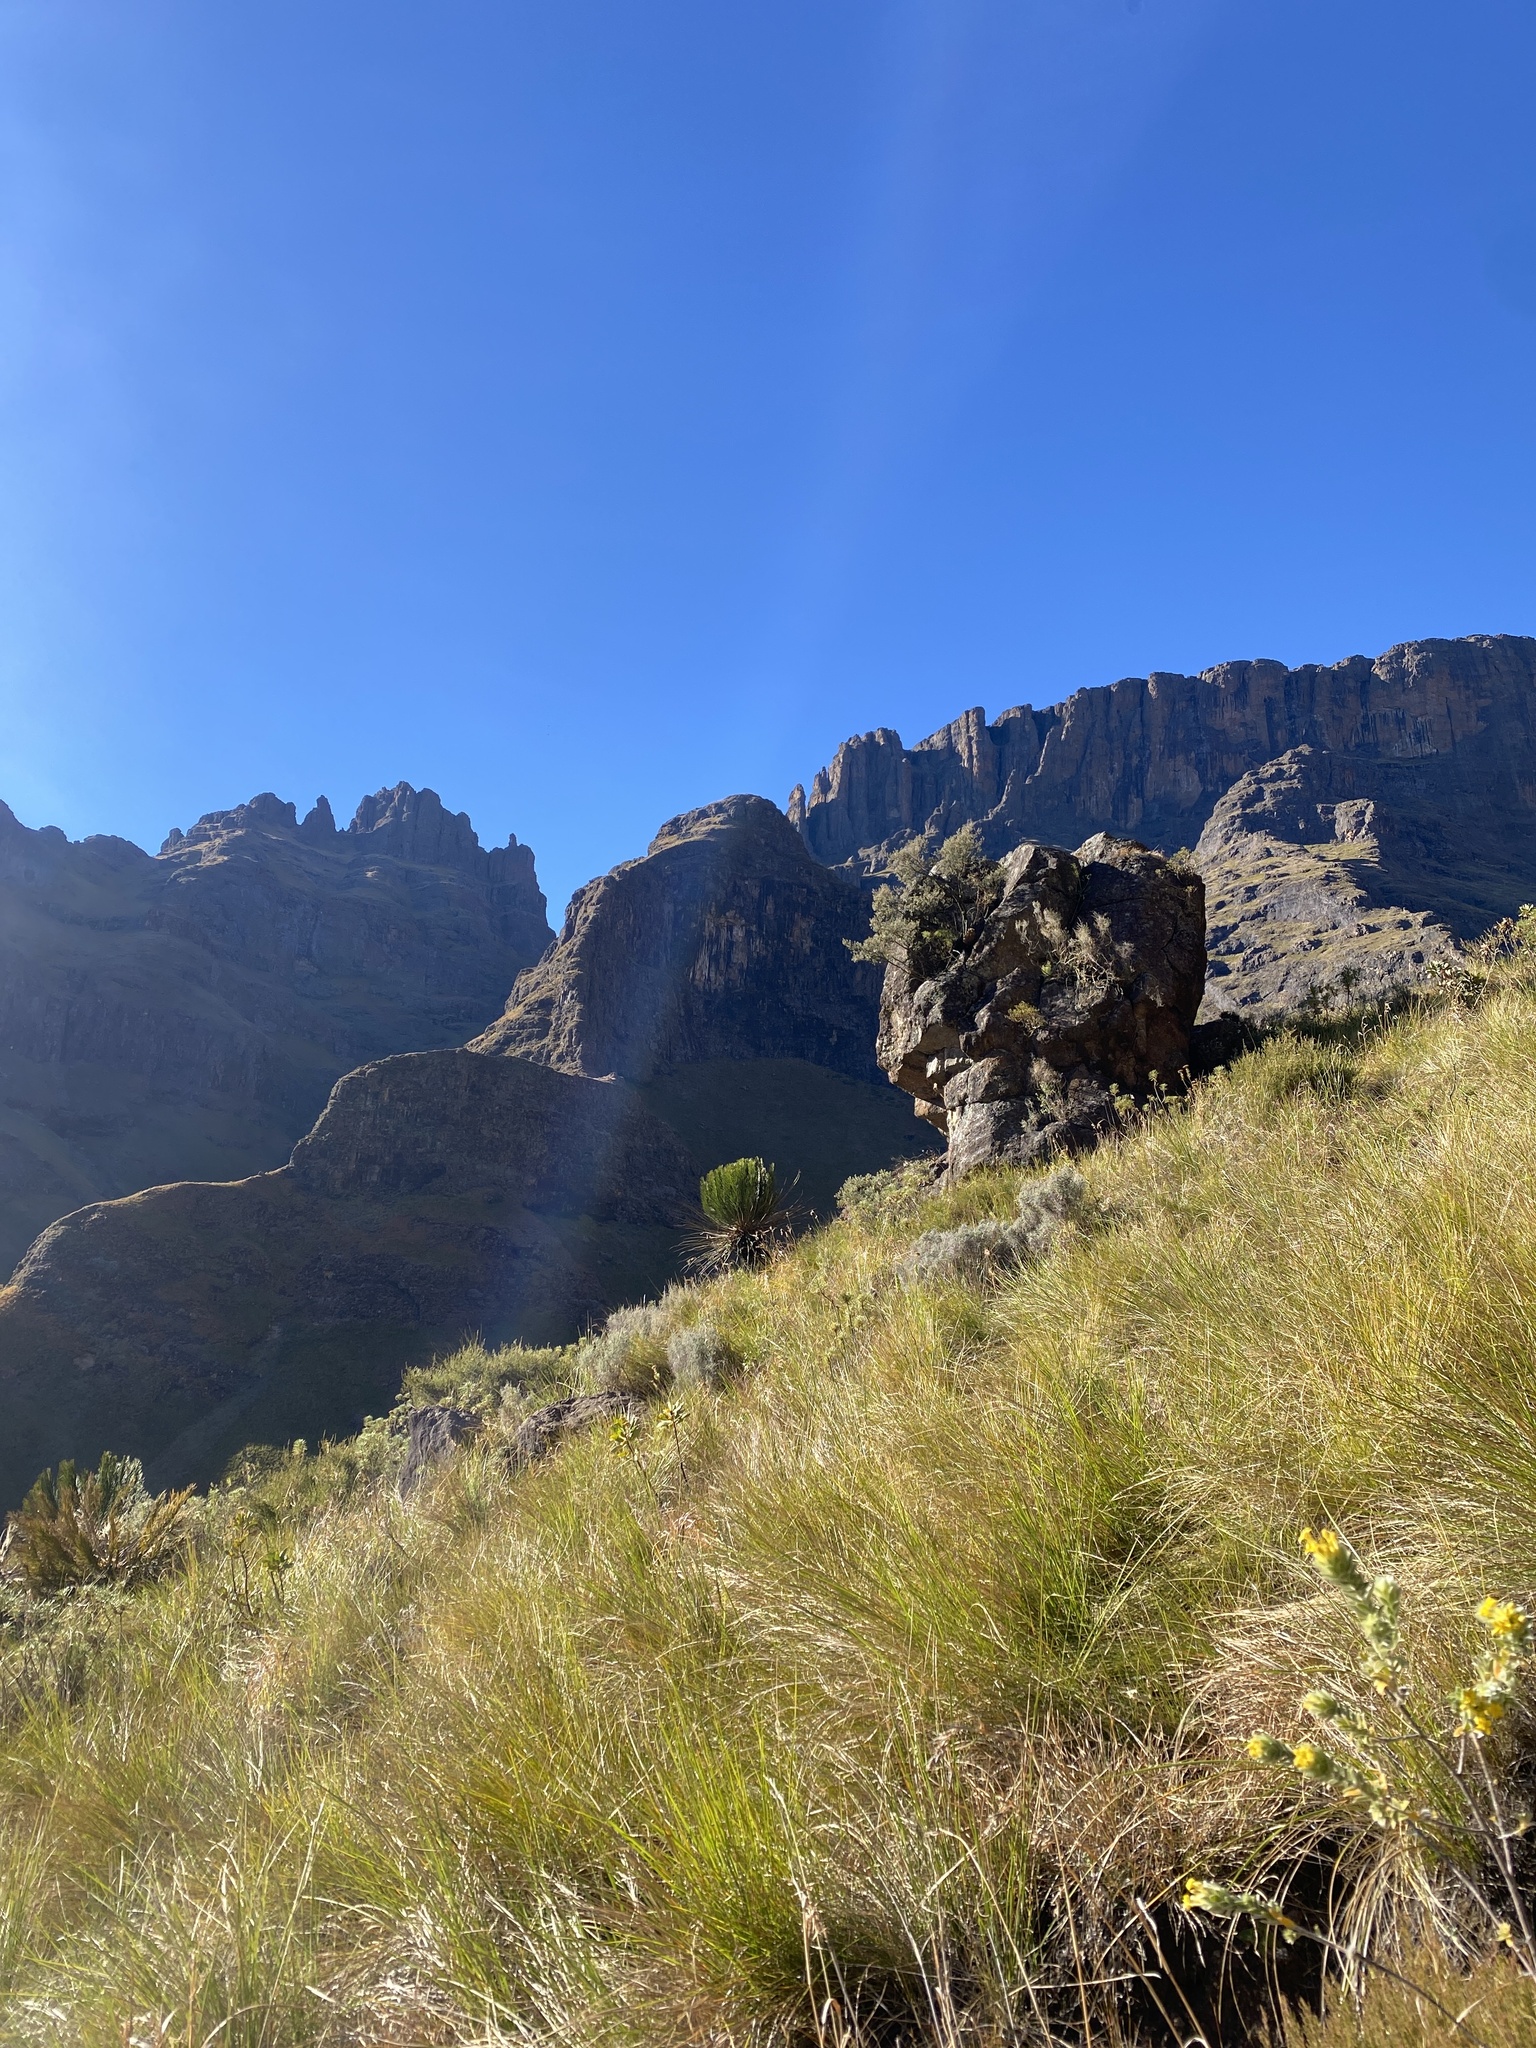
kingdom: Plantae
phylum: Tracheophyta
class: Cycadopsida
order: Cycadales
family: Zamiaceae
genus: Encephalartos
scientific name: Encephalartos ghellinckii
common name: Drakensberg cycad
